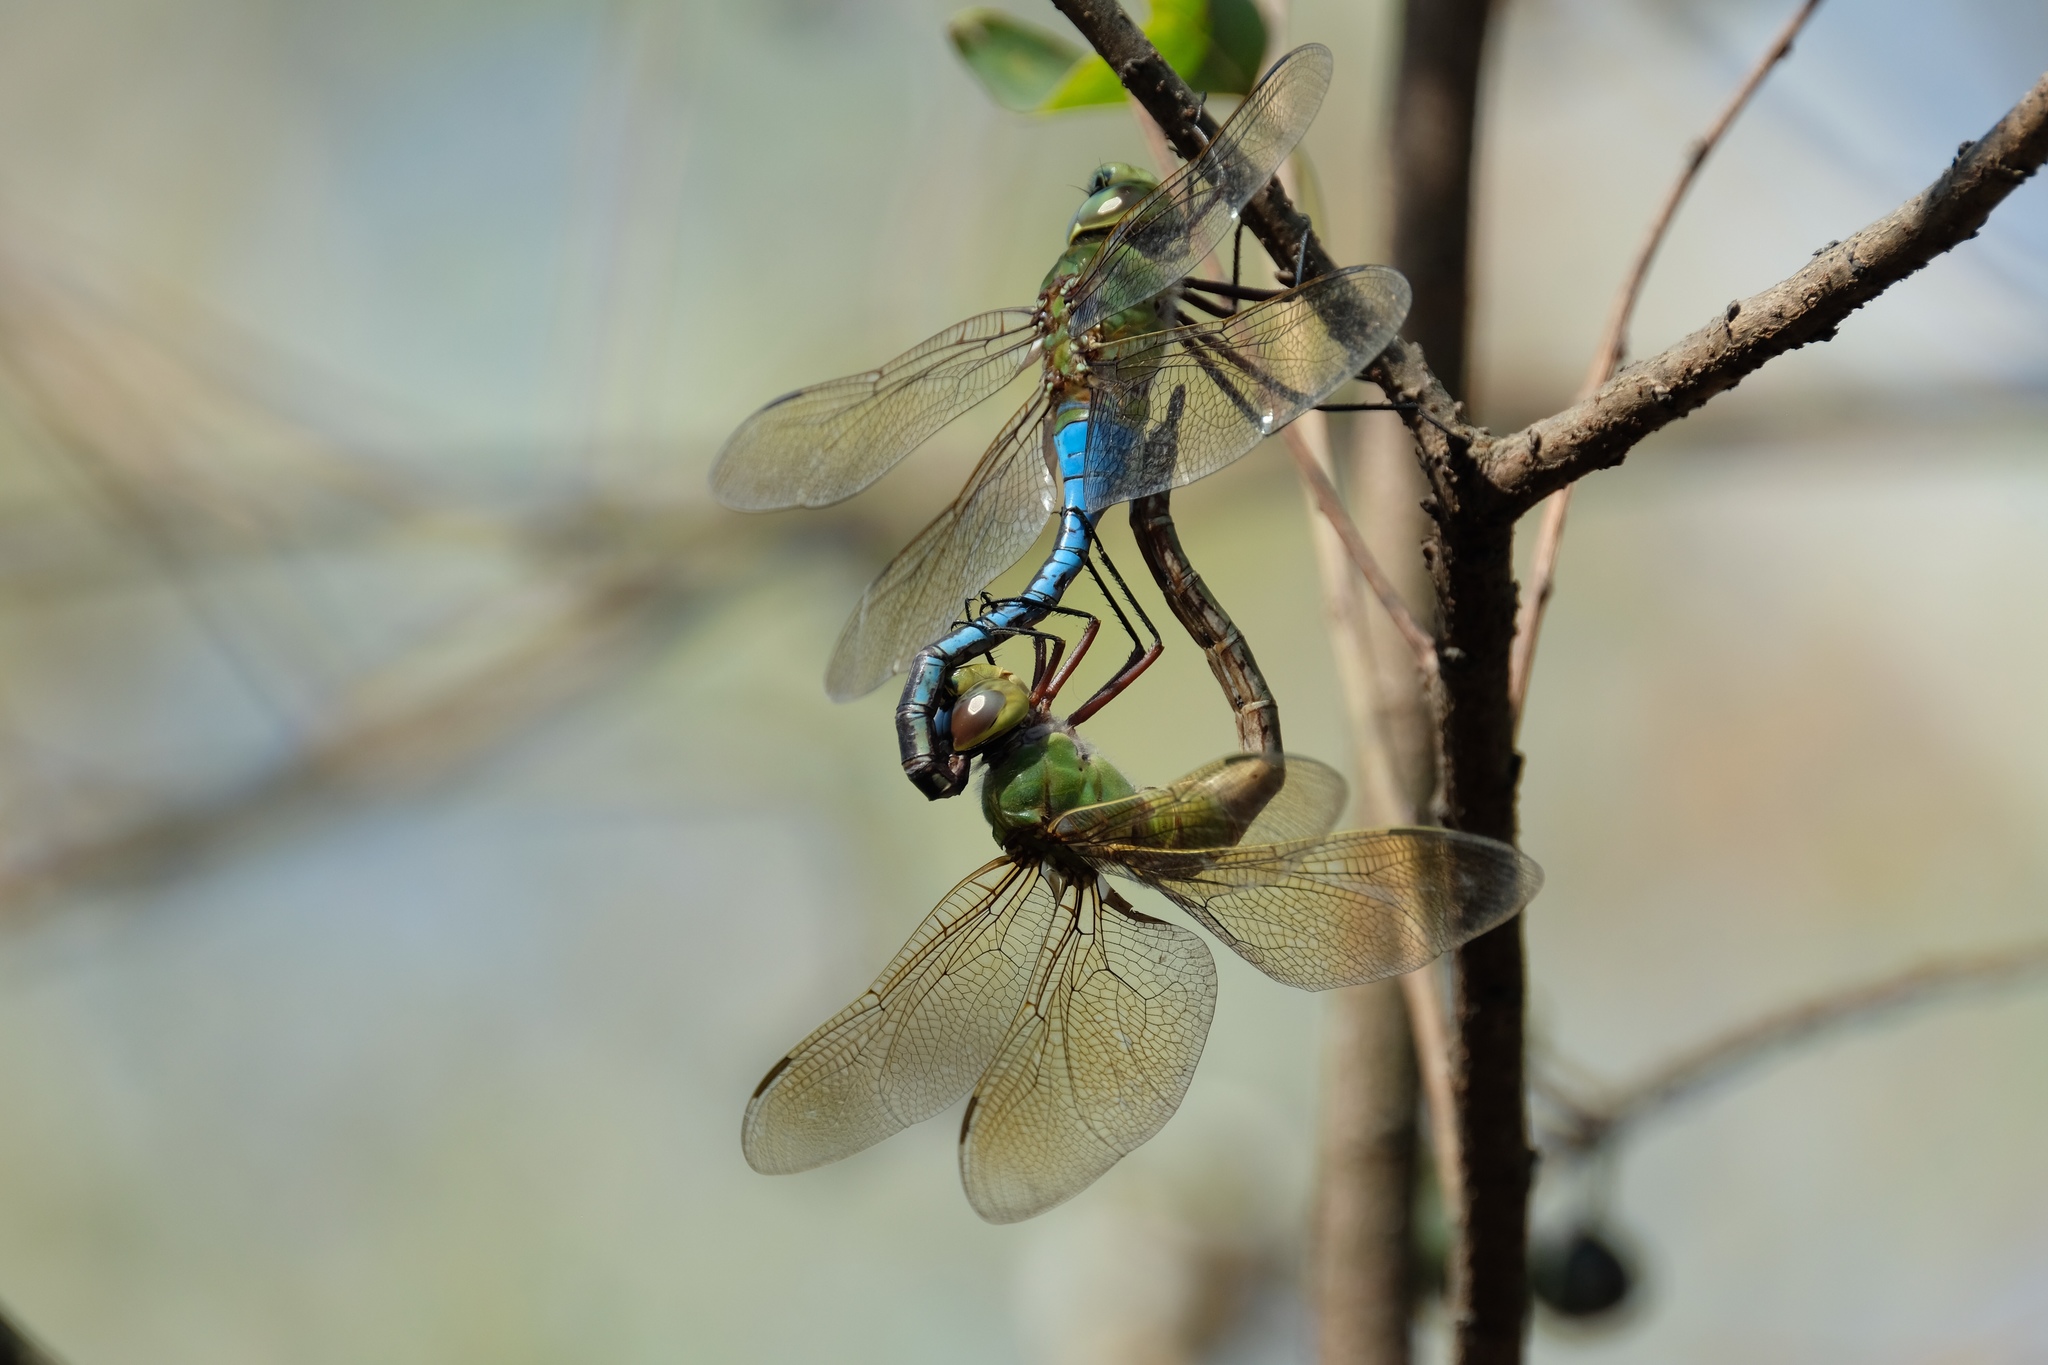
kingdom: Animalia
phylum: Arthropoda
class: Insecta
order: Odonata
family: Aeshnidae
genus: Anax
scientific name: Anax junius
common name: Common green darner
